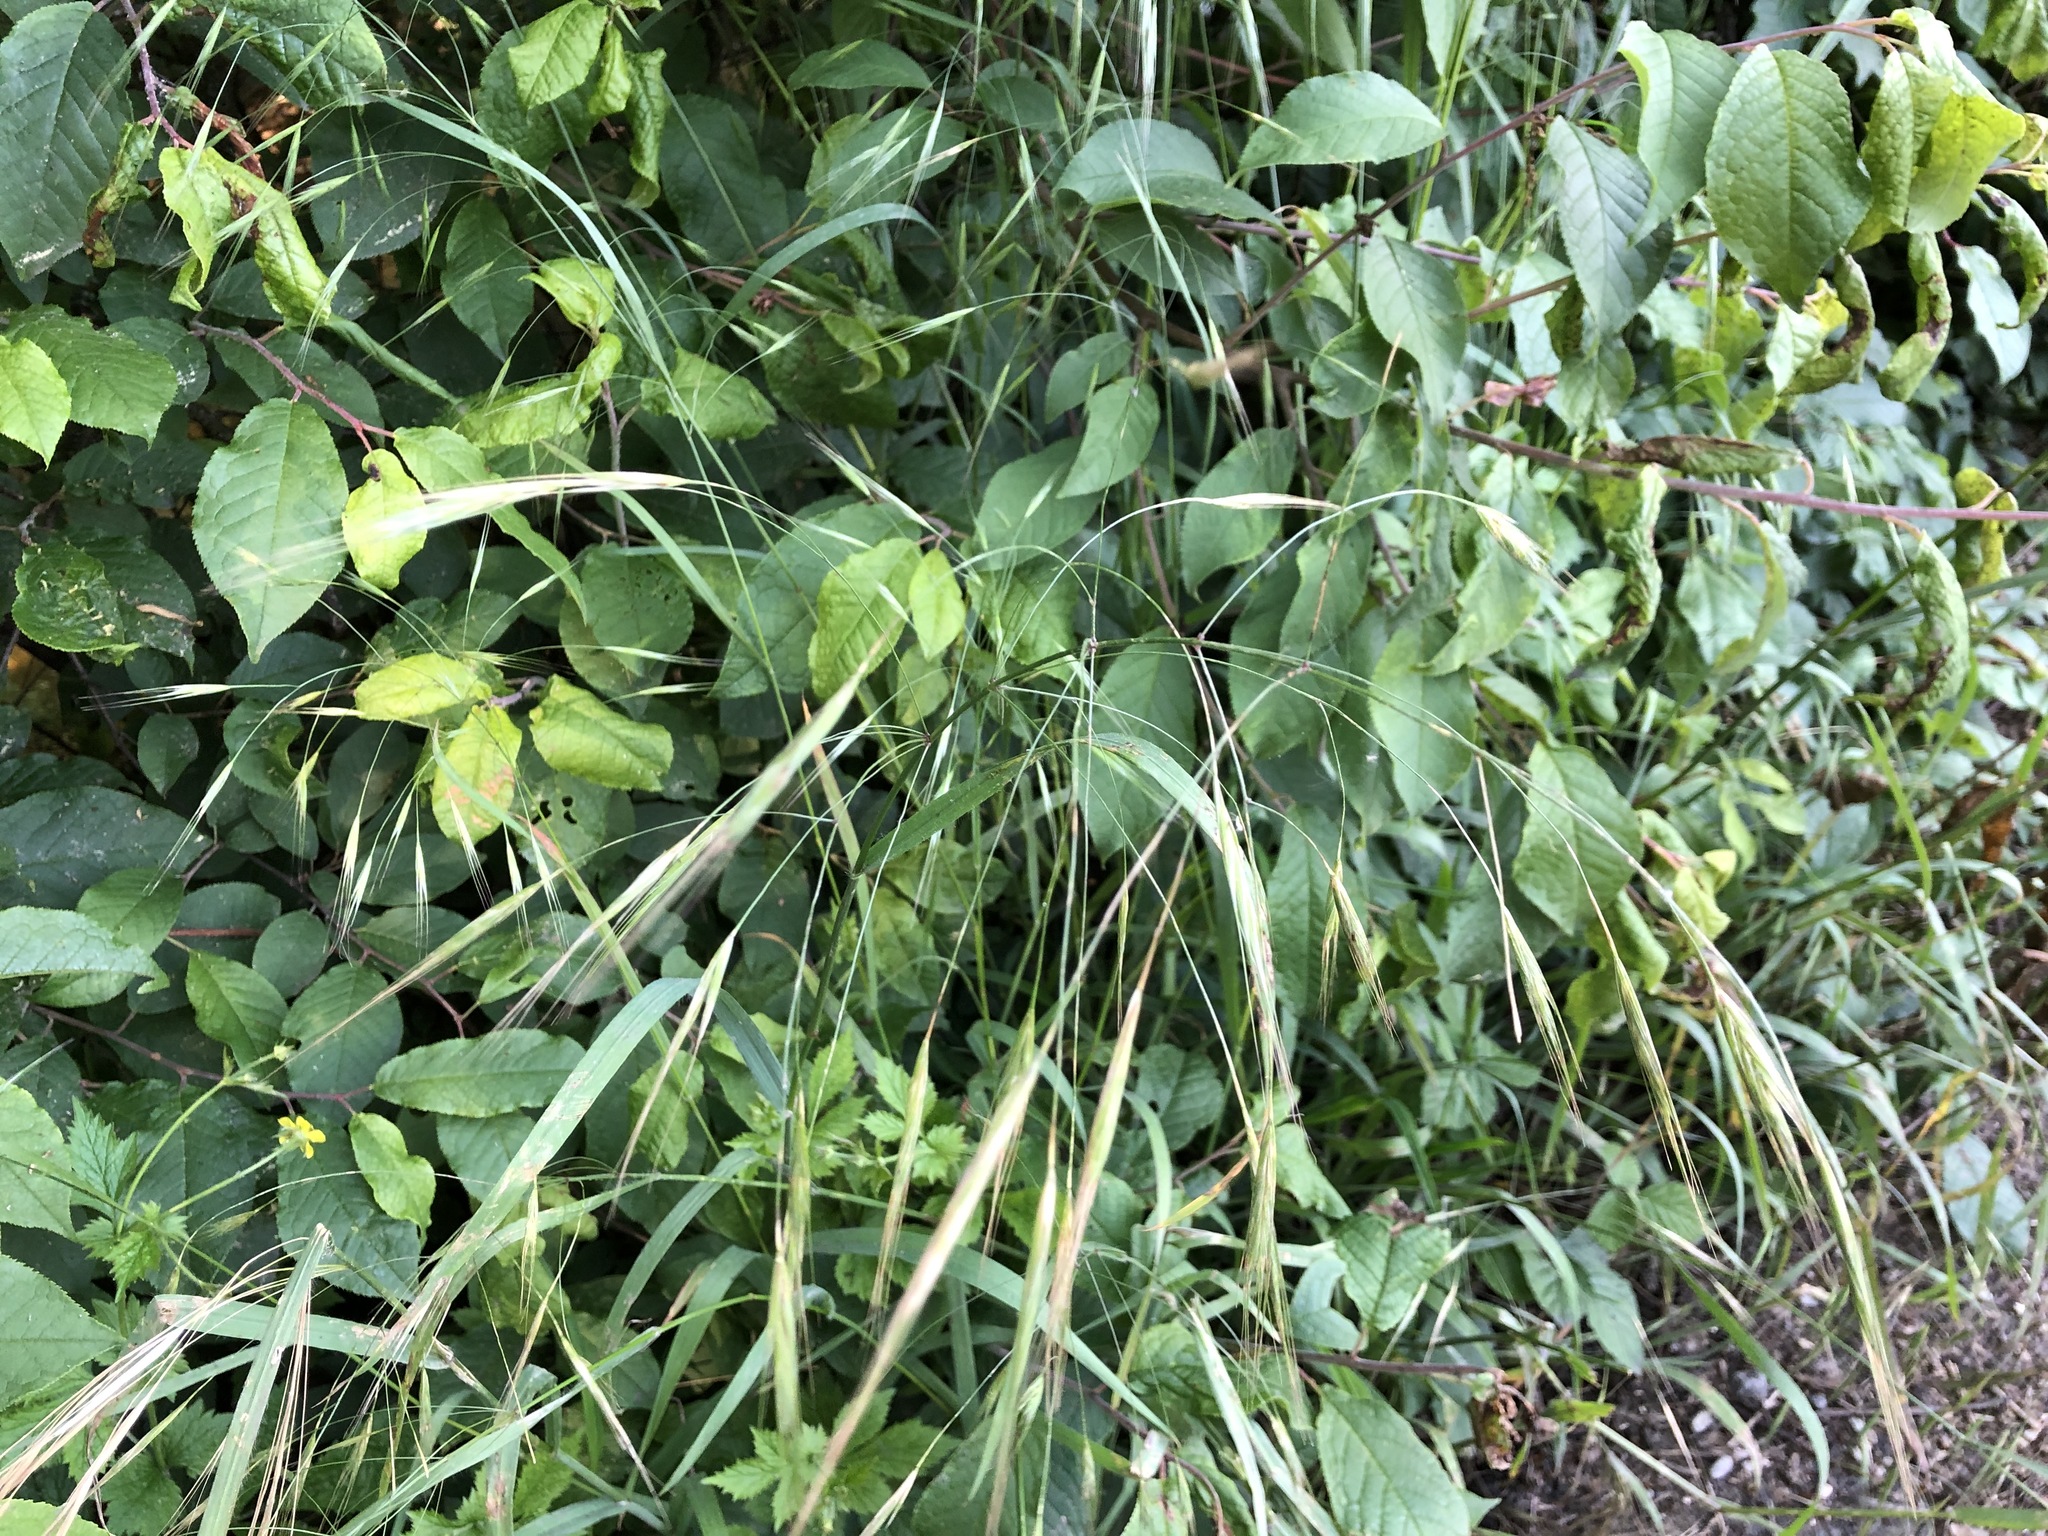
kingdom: Plantae
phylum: Tracheophyta
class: Liliopsida
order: Poales
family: Poaceae
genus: Bromus
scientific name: Bromus sterilis
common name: Poverty brome
